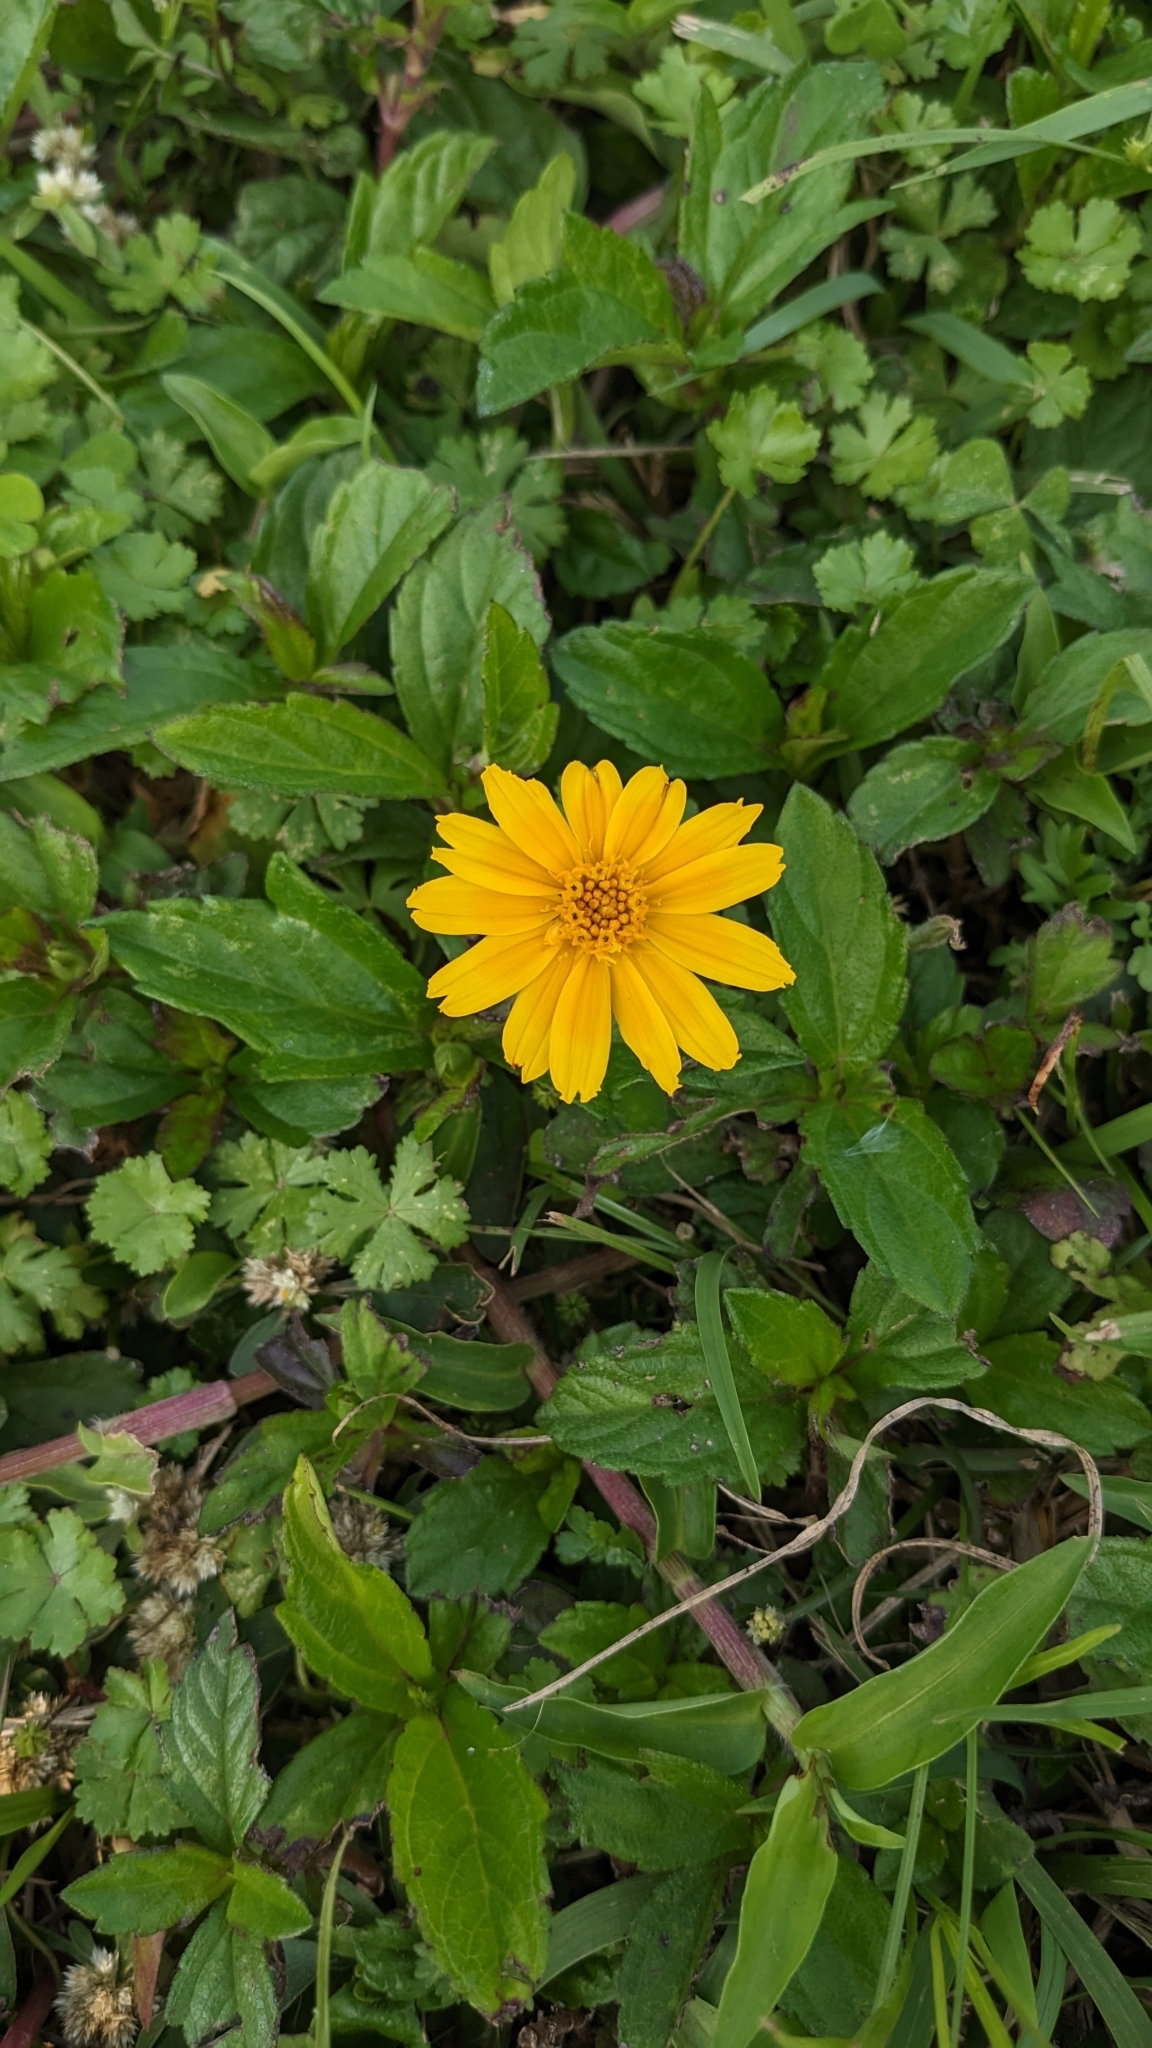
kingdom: Plantae
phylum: Tracheophyta
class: Magnoliopsida
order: Asterales
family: Asteraceae
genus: Sphagneticola
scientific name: Sphagneticola trilobata
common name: Bay biscayne creeping-oxeye
